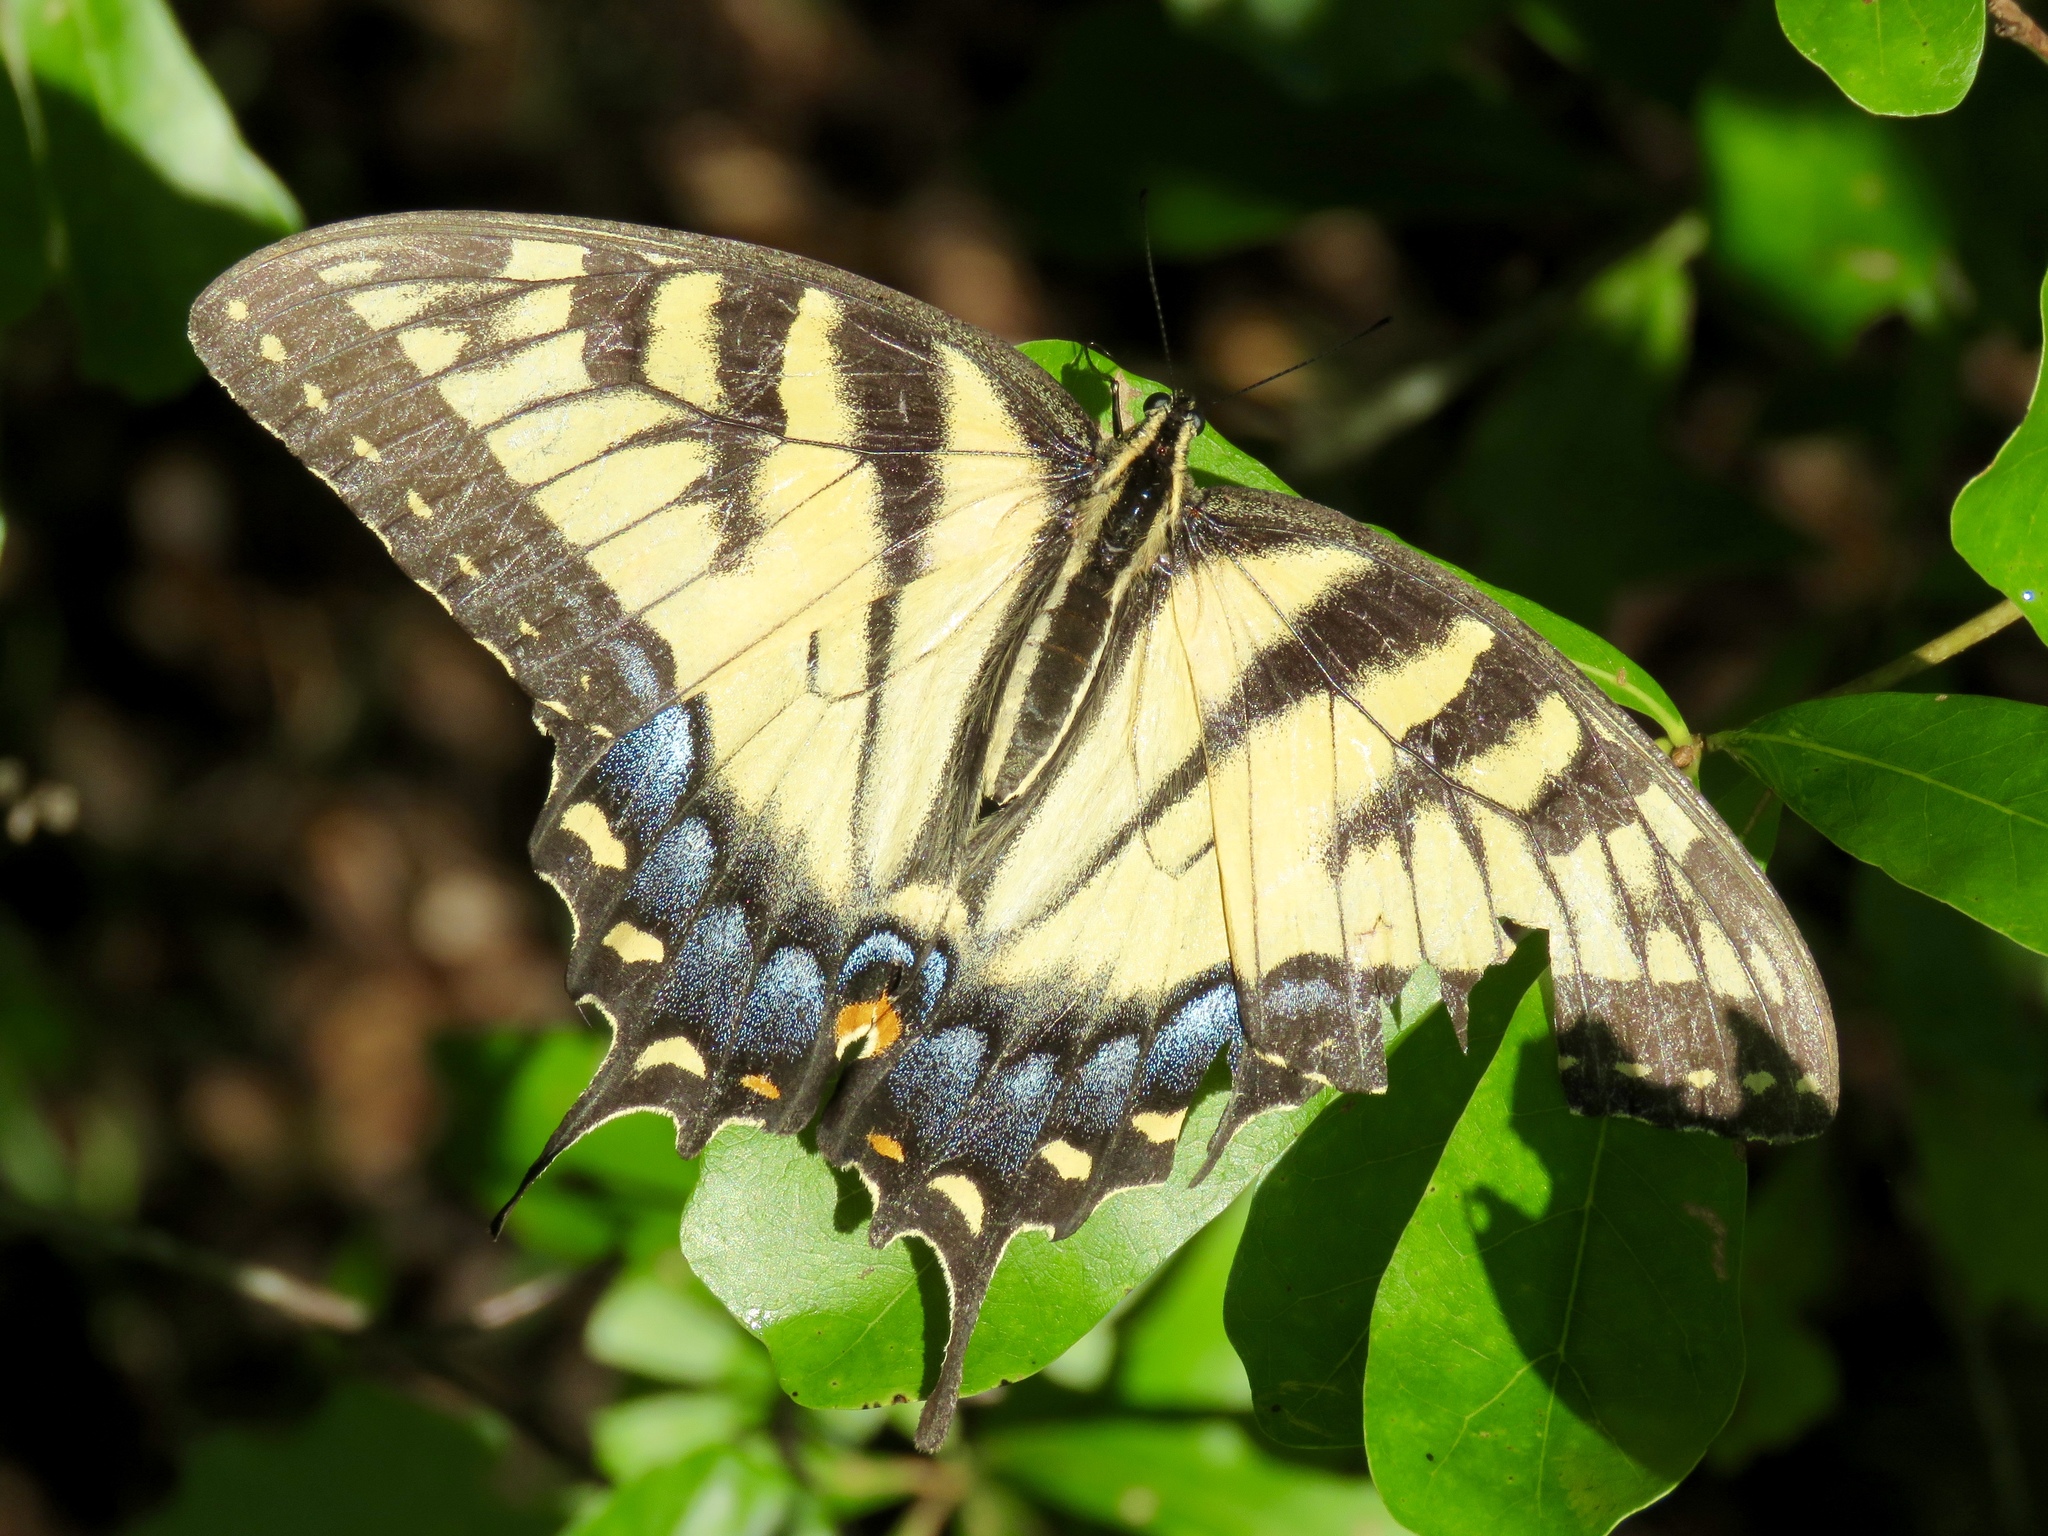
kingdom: Animalia
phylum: Arthropoda
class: Insecta
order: Lepidoptera
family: Papilionidae
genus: Papilio
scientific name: Papilio glaucus
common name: Tiger swallowtail
